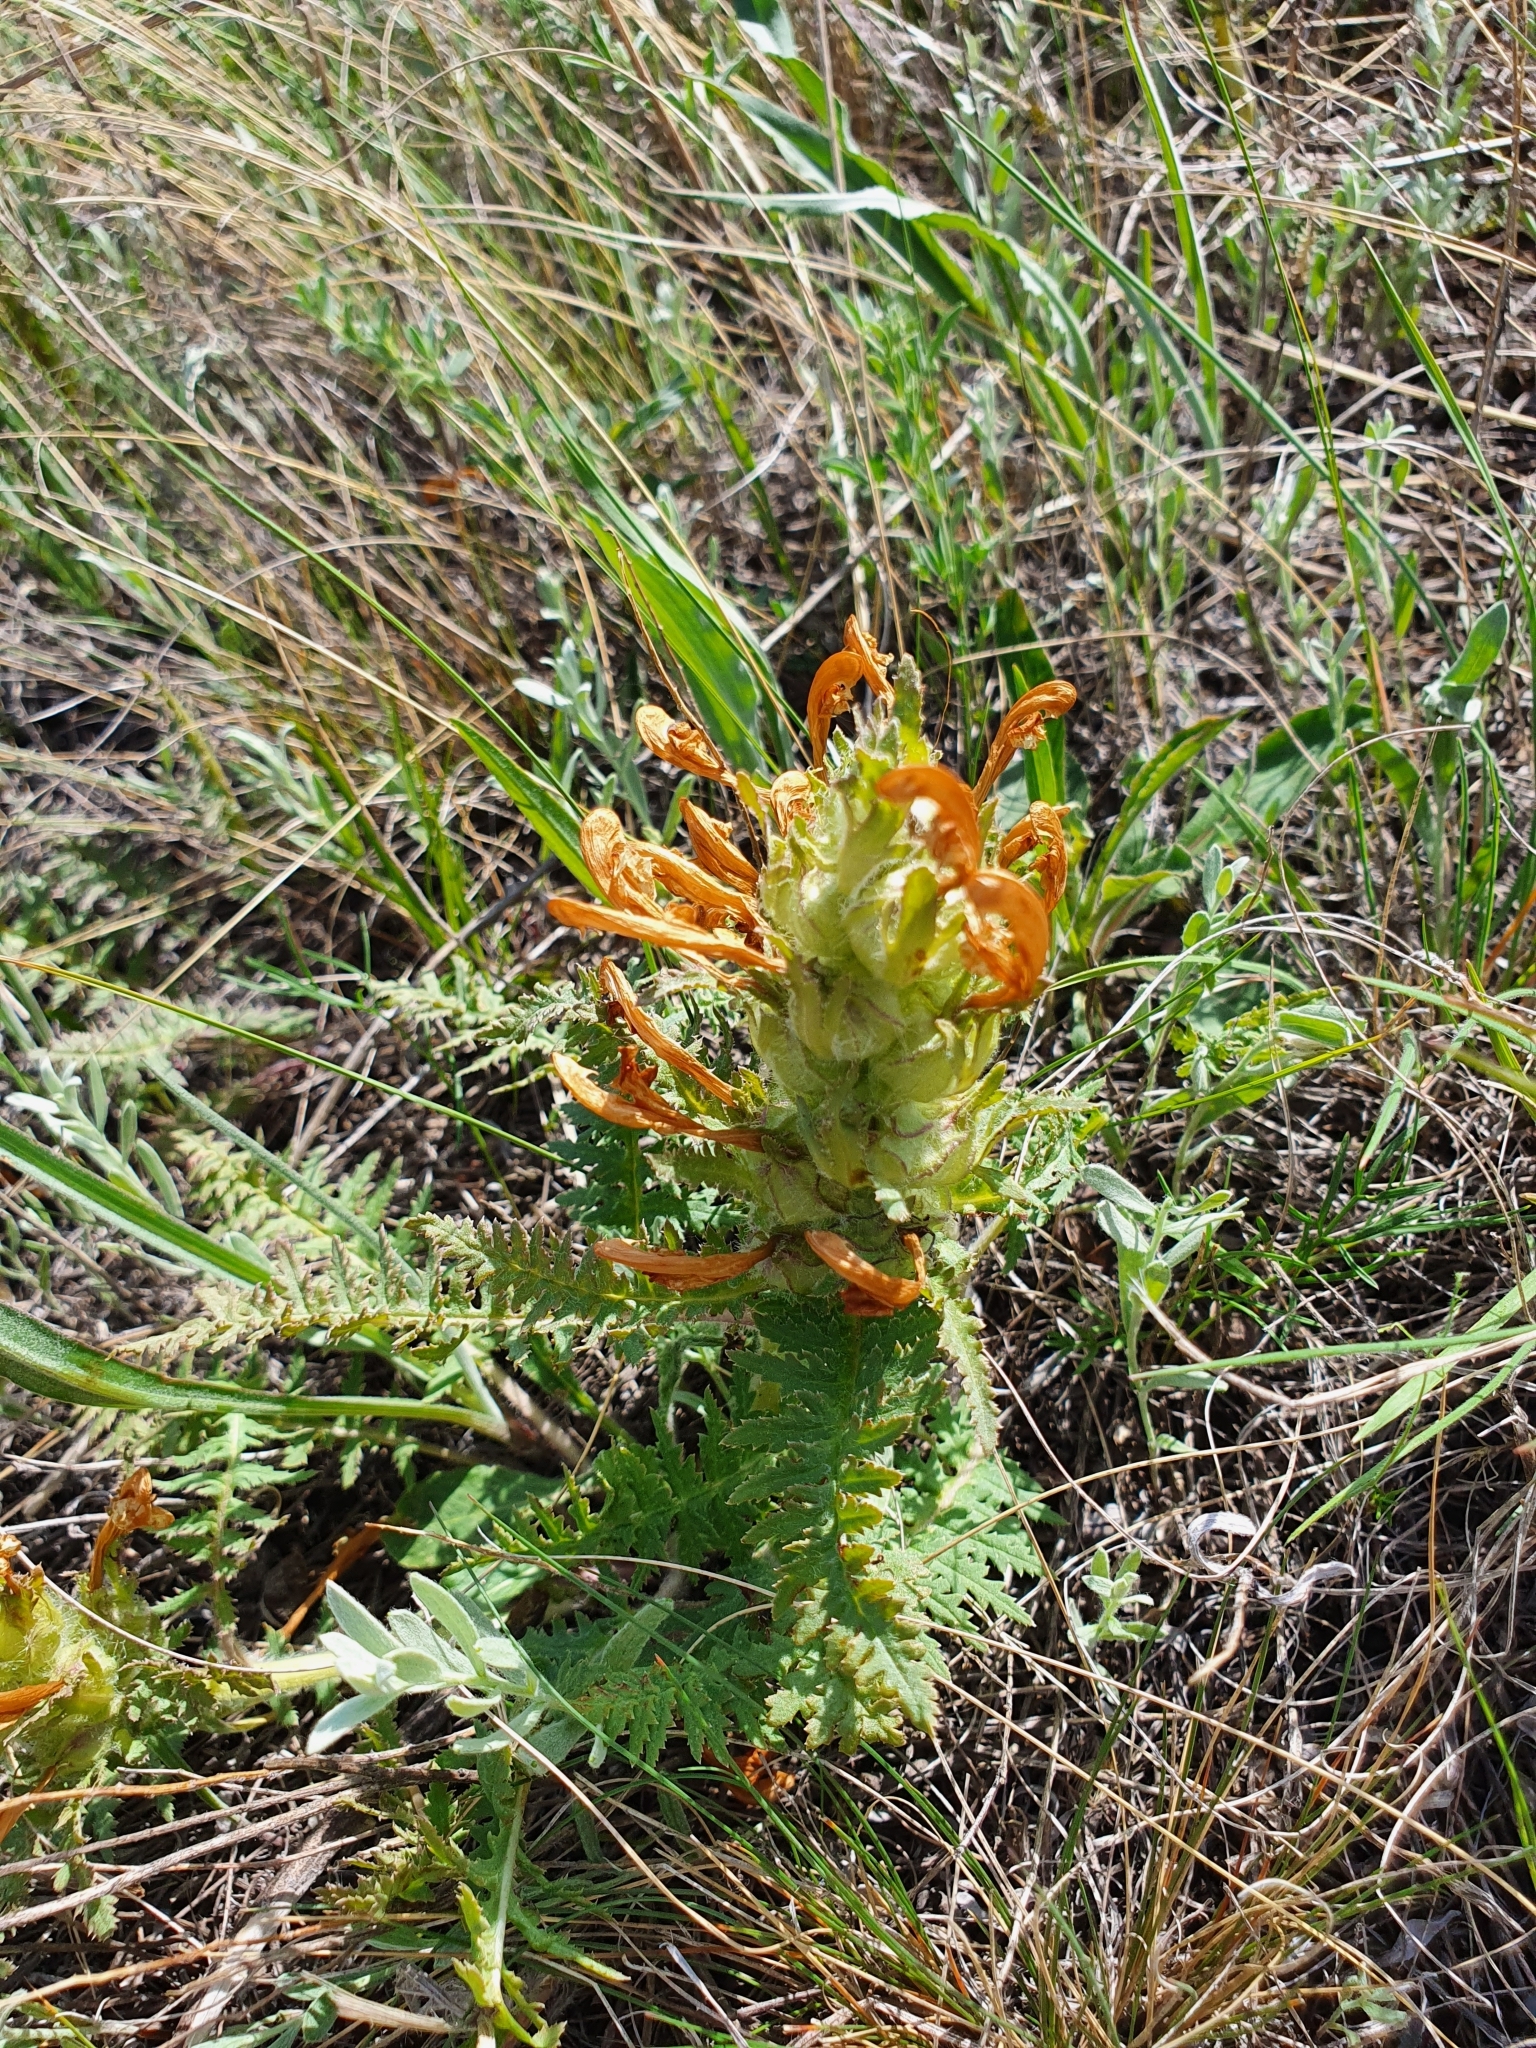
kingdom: Plantae
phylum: Tracheophyta
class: Magnoliopsida
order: Lamiales
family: Orobanchaceae
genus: Pedicularis
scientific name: Pedicularis physocalyx
